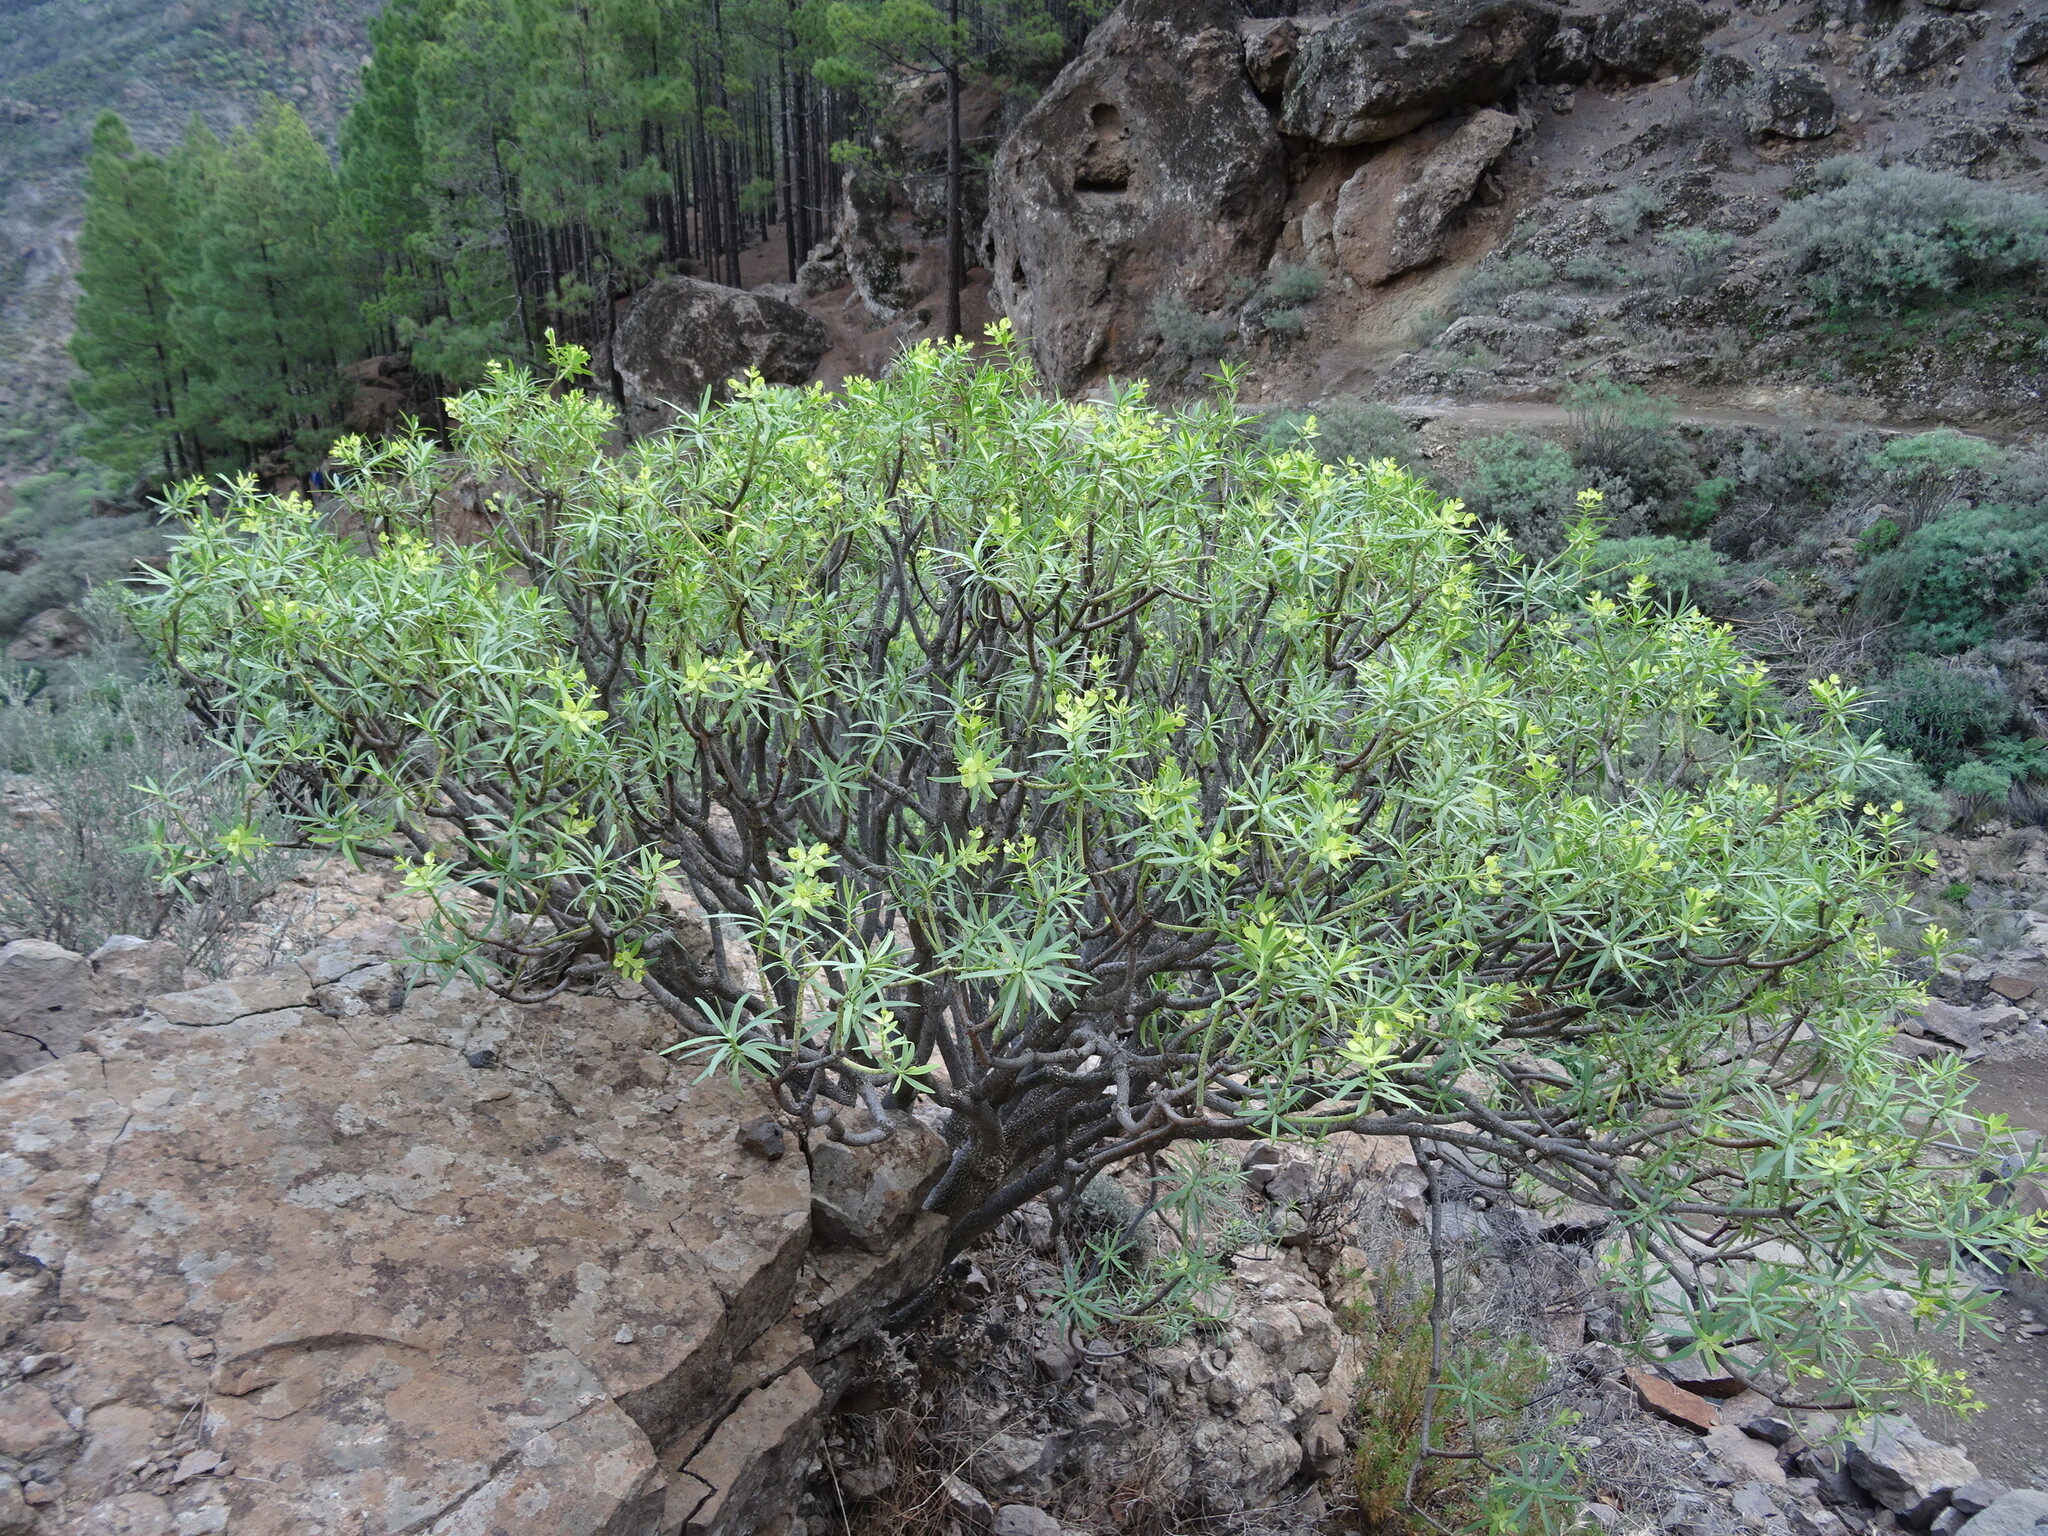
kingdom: Plantae
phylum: Tracheophyta
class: Magnoliopsida
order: Malpighiales
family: Euphorbiaceae
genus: Euphorbia
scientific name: Euphorbia regis-jubae
